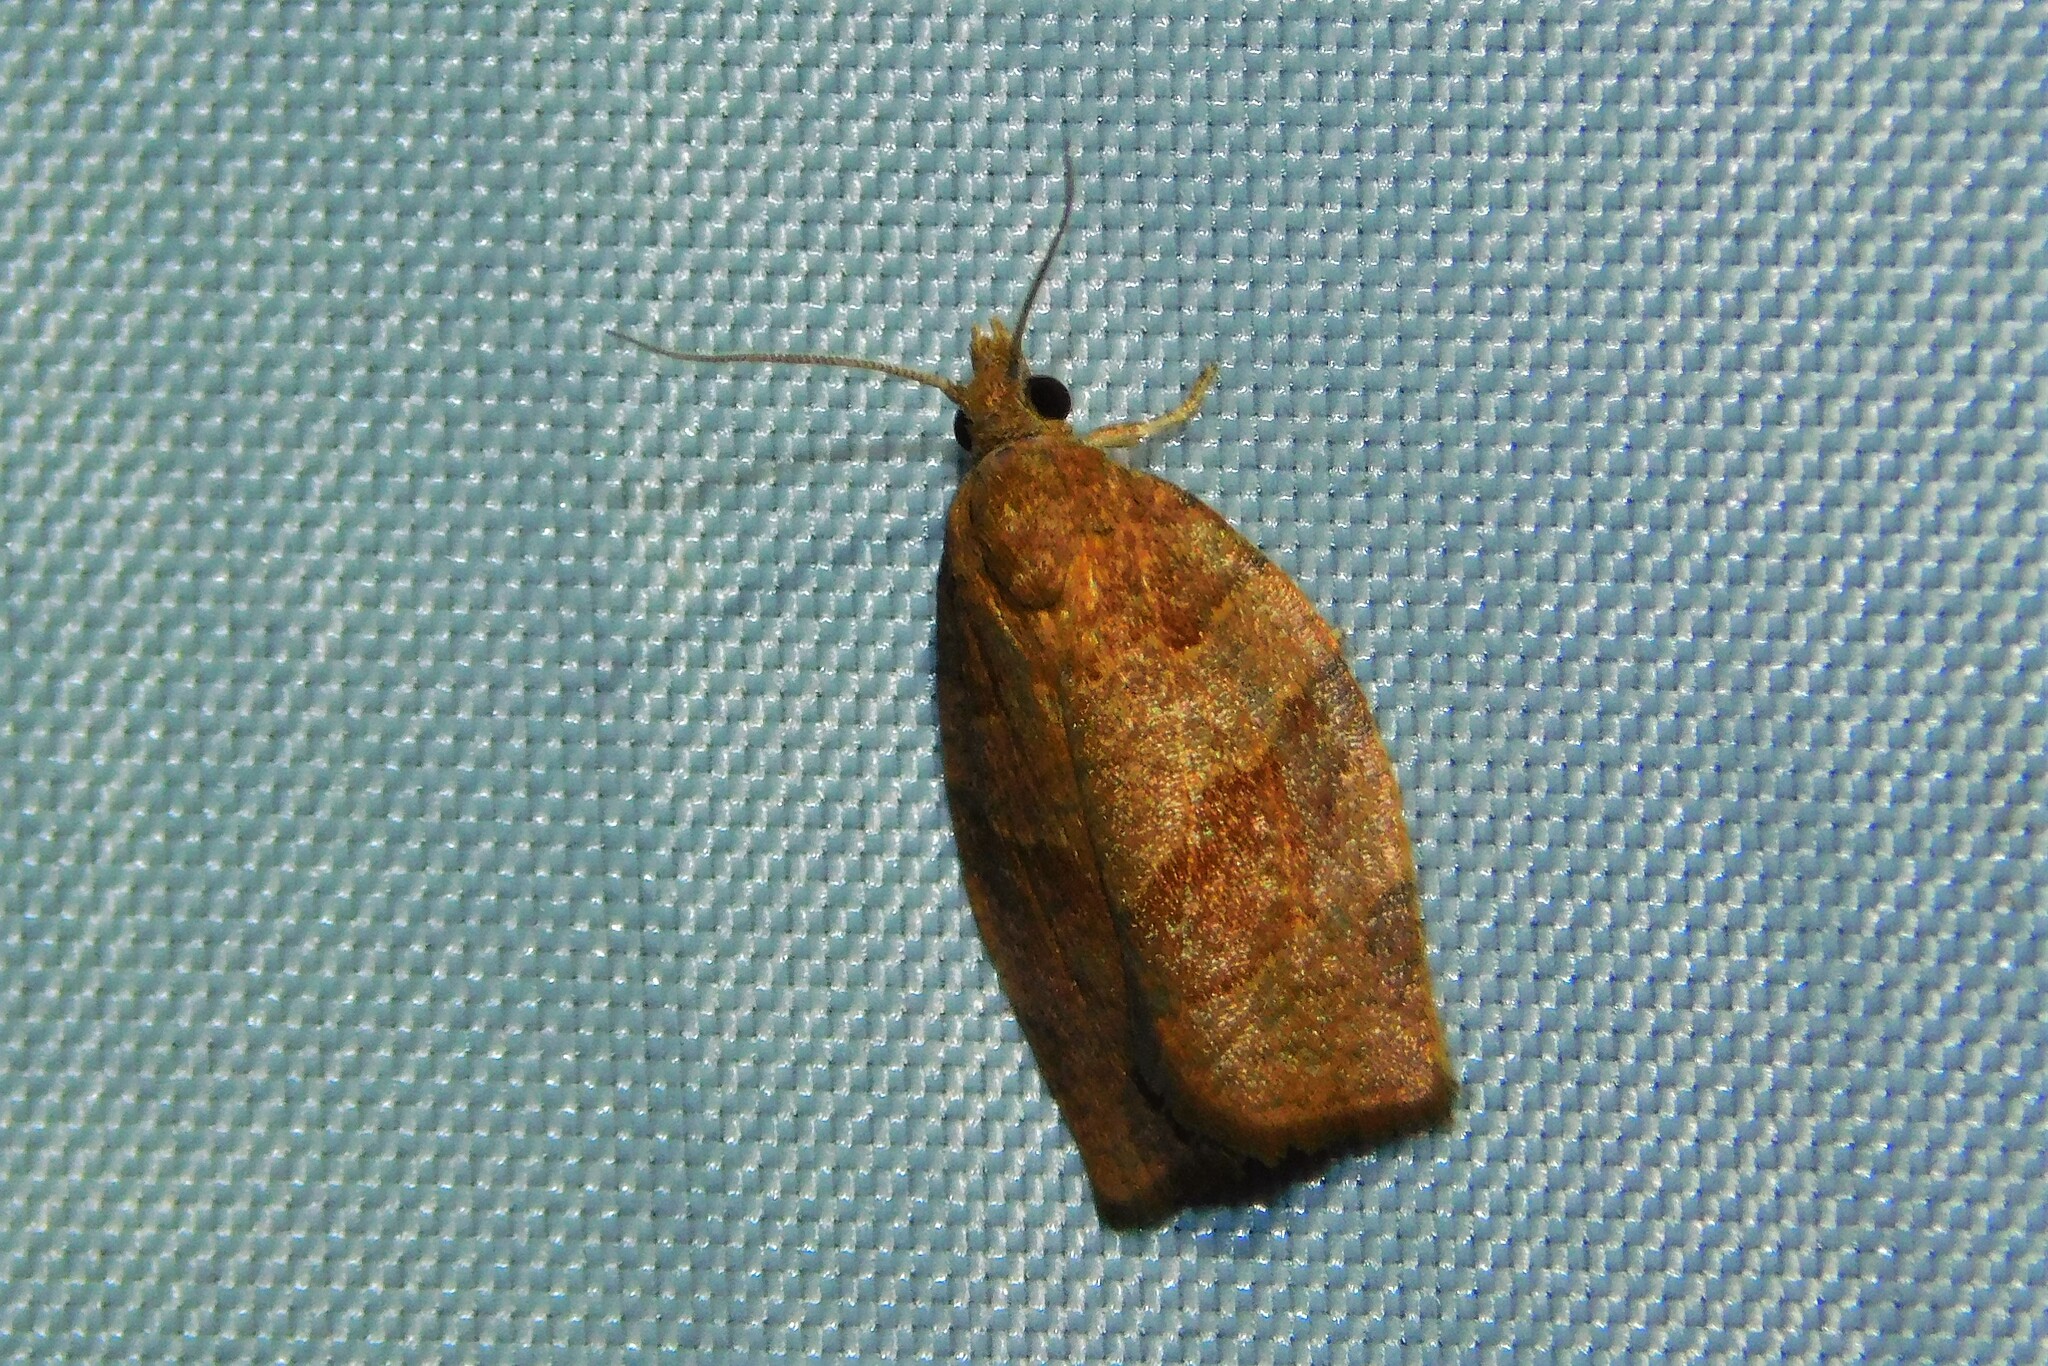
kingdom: Animalia
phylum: Arthropoda
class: Insecta
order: Lepidoptera
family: Tortricidae
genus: Pandemis
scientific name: Pandemis heparana
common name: Dark fruit-tree tortrix
